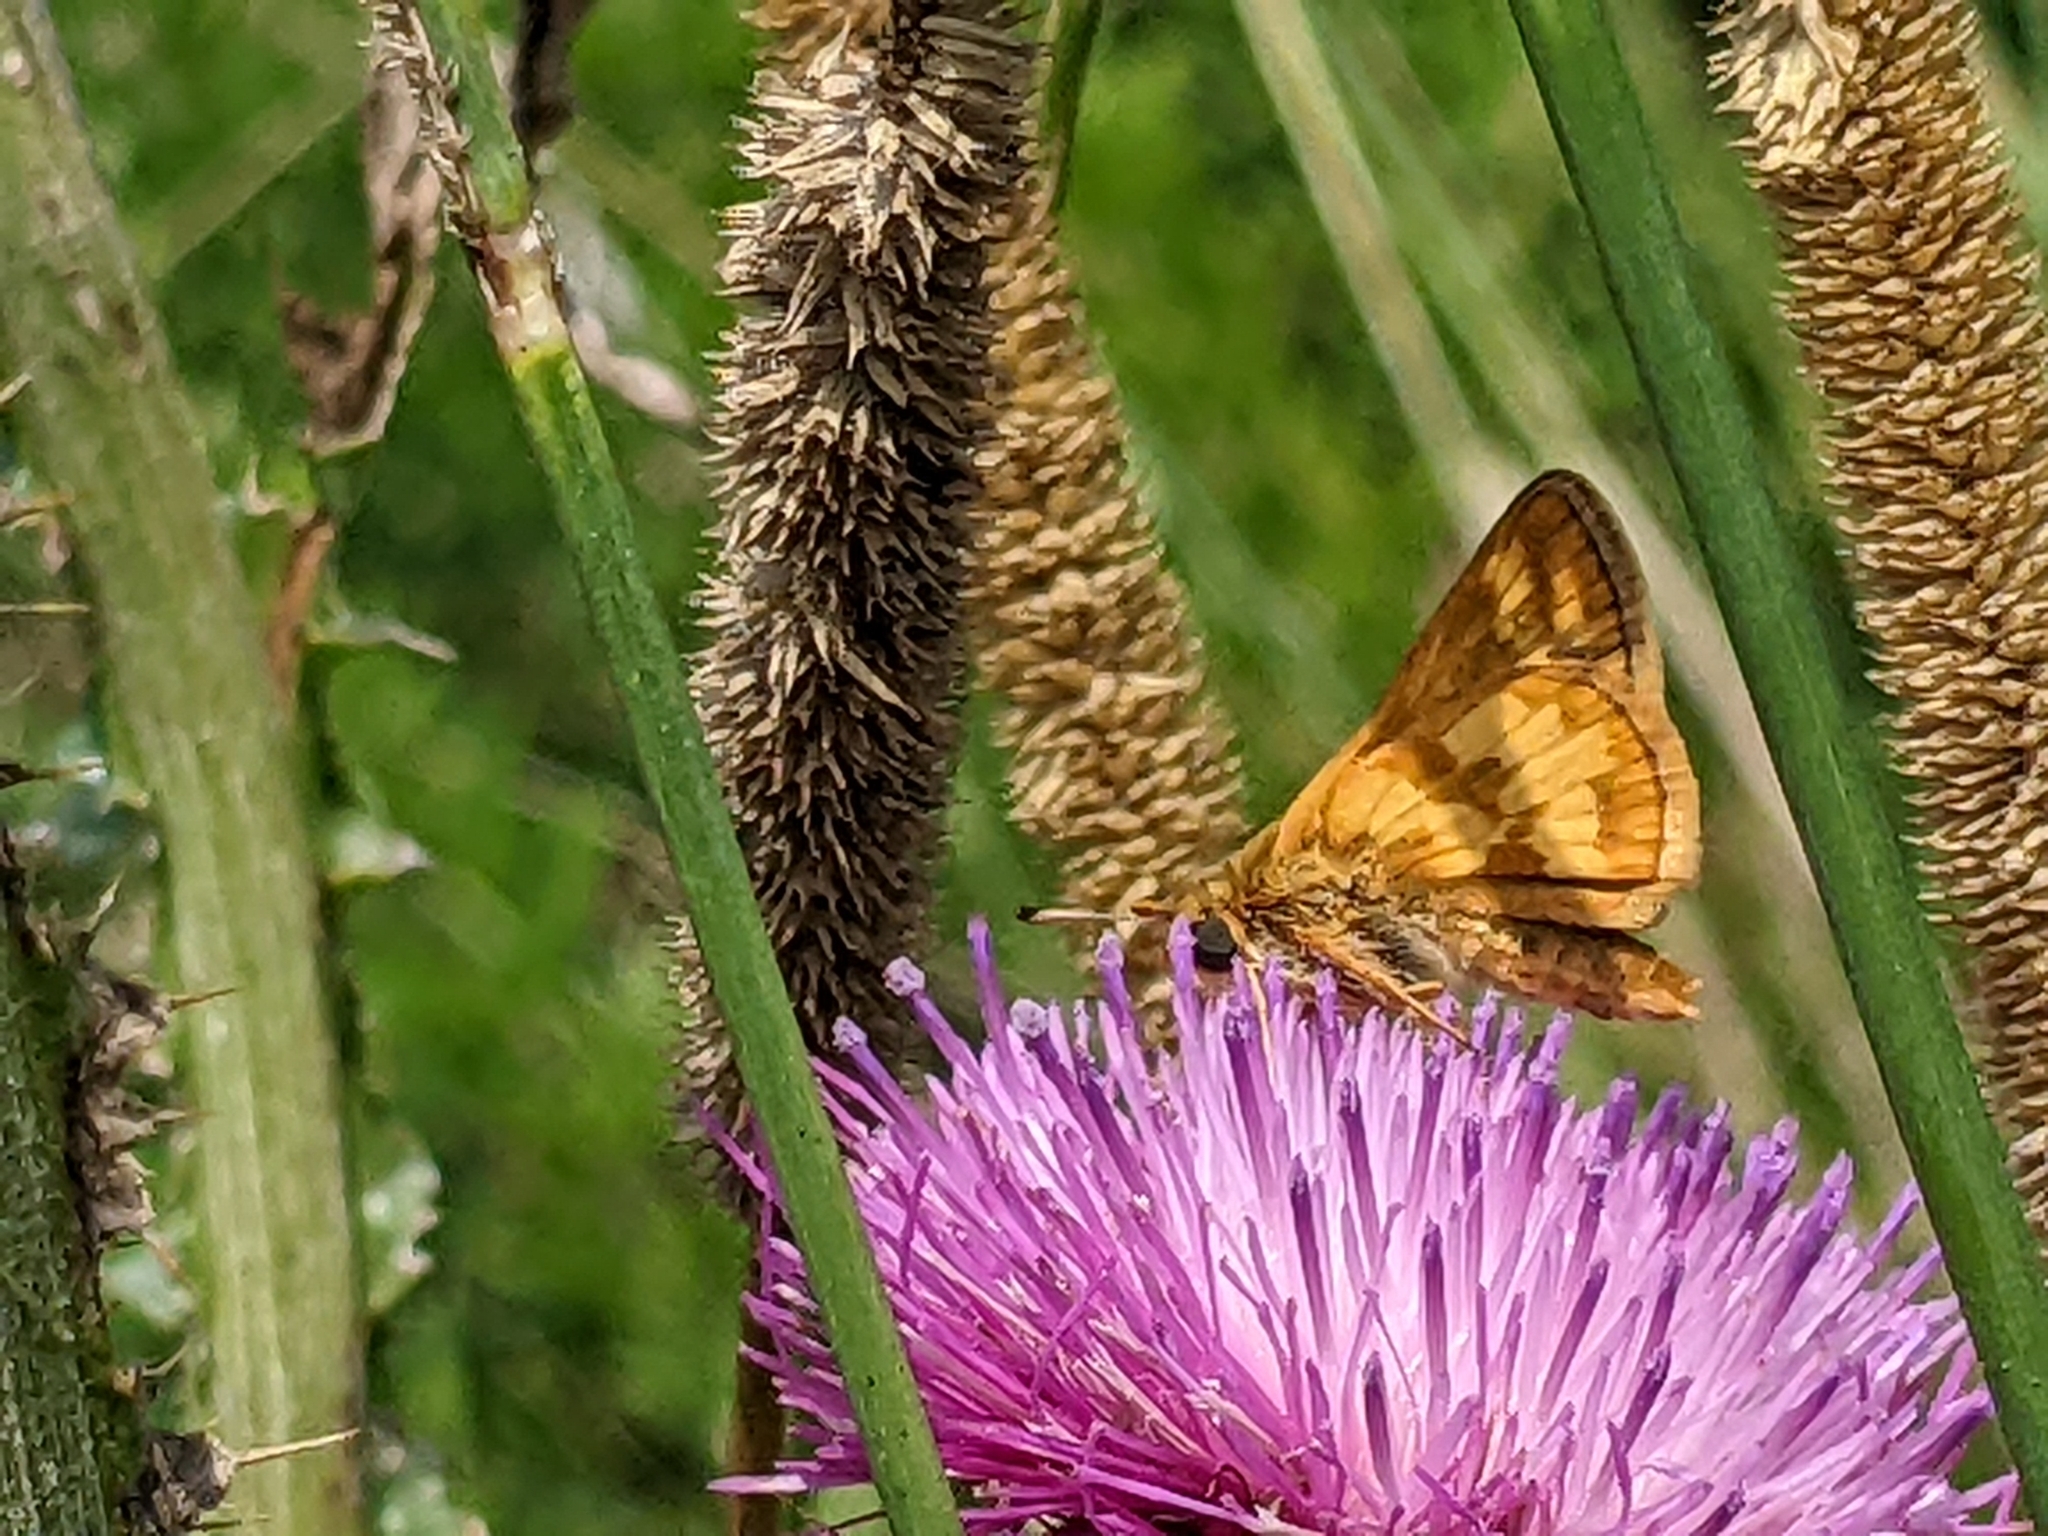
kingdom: Animalia
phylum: Arthropoda
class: Insecta
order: Lepidoptera
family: Hesperiidae
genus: Polites
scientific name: Polites coras
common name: Peck's skipper
